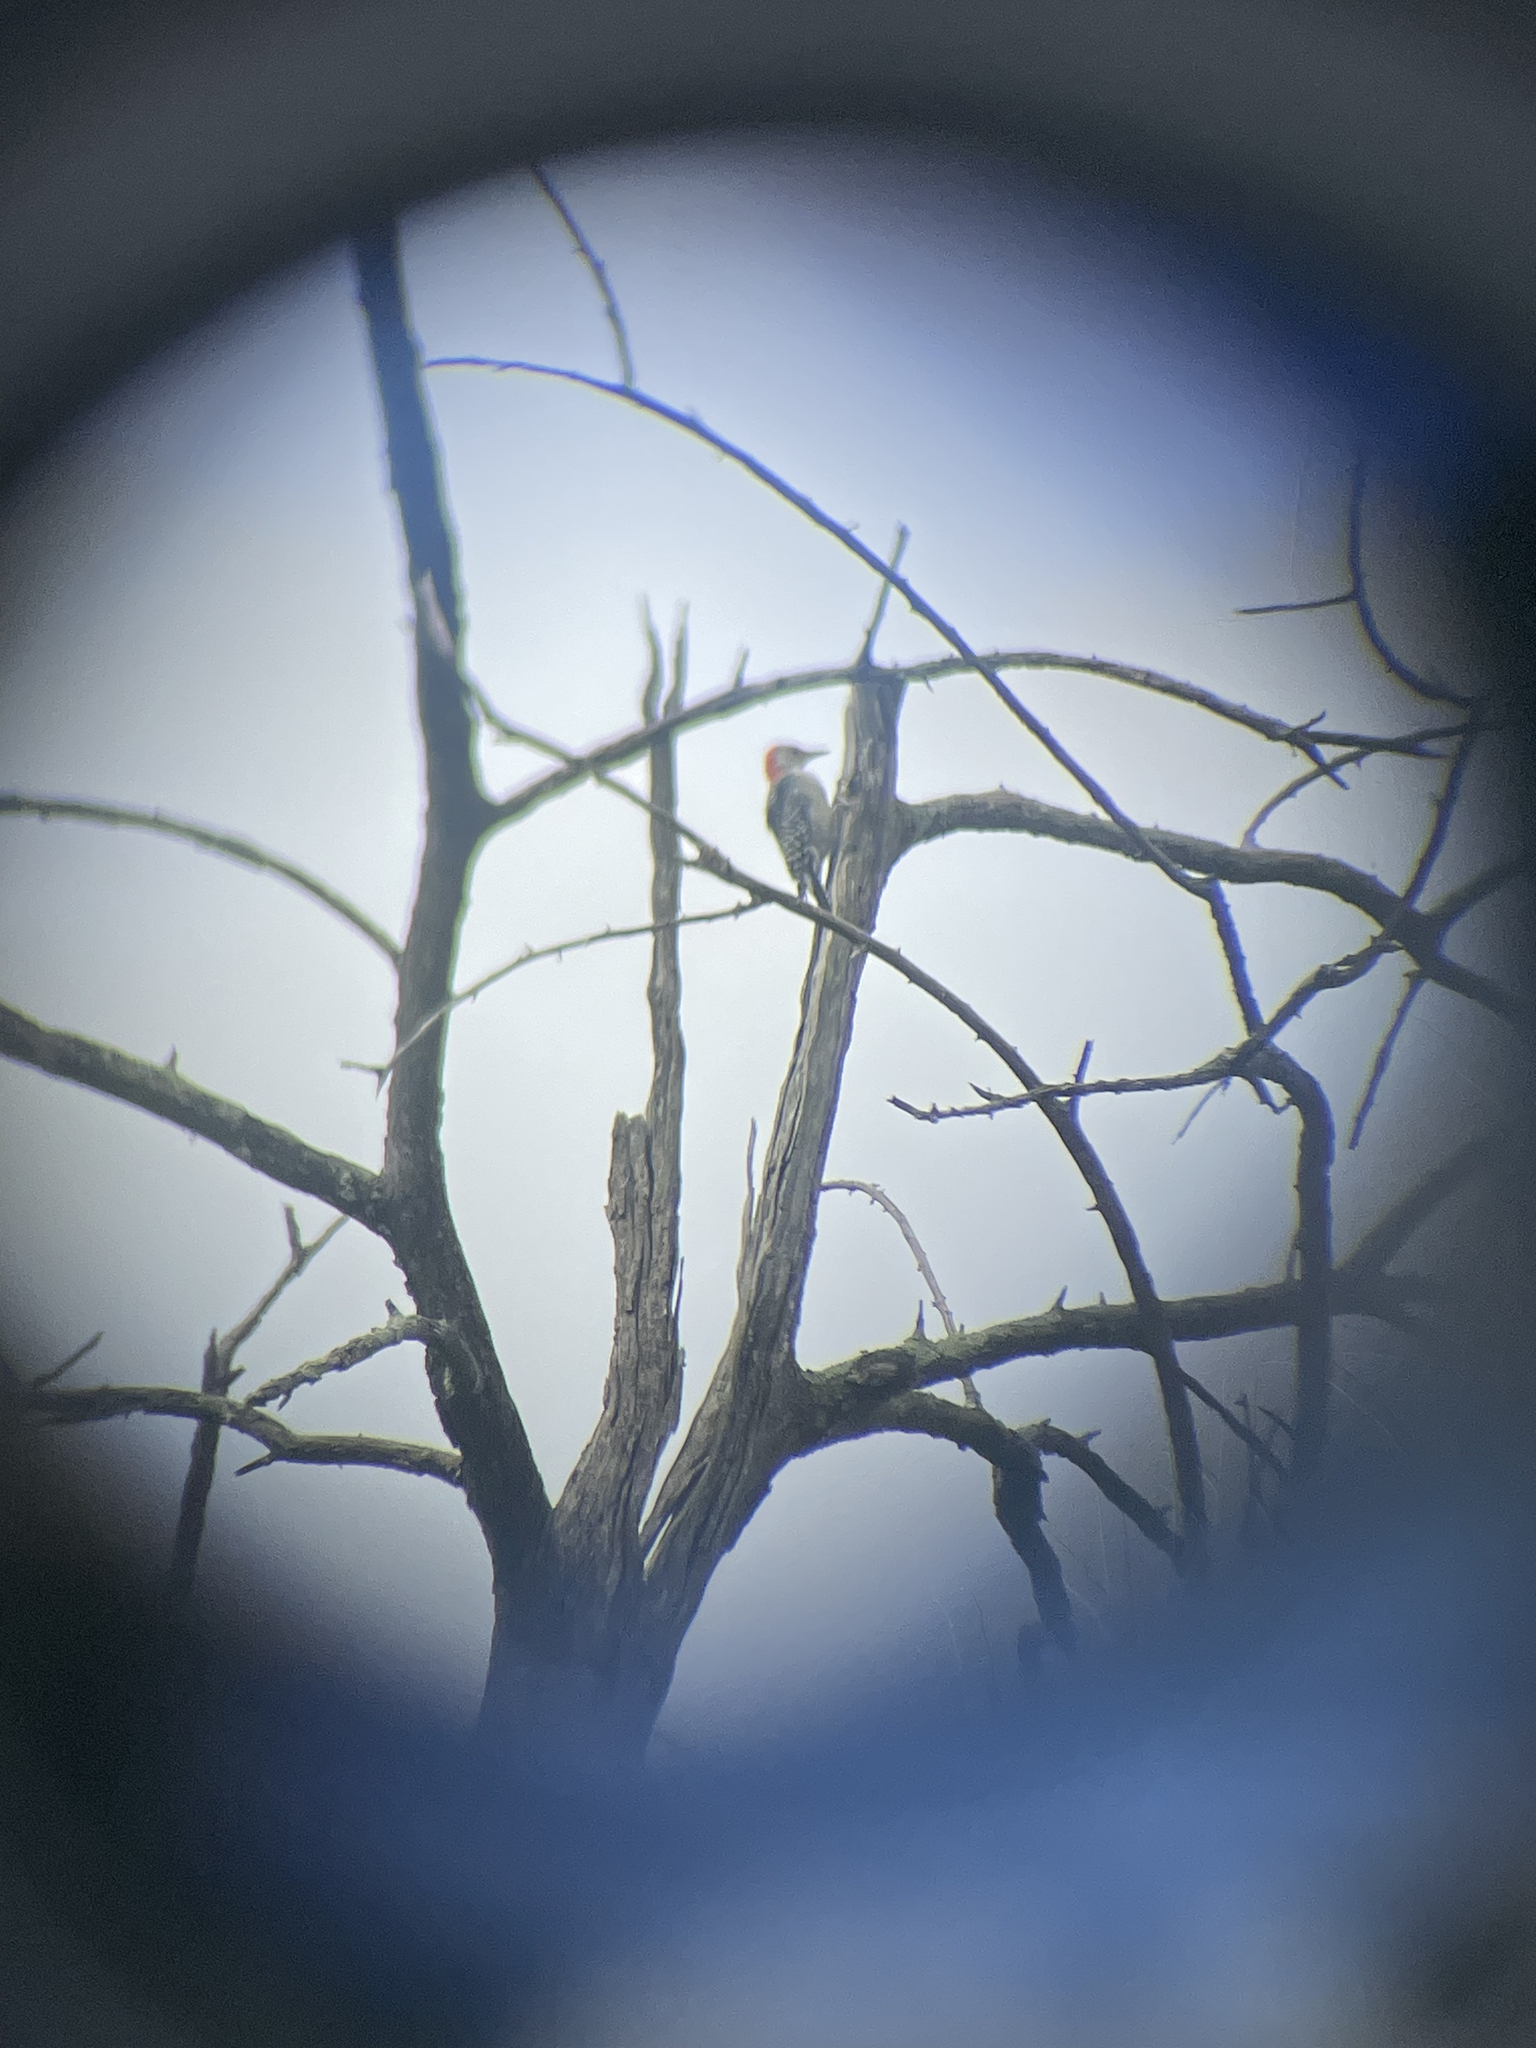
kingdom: Animalia
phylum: Chordata
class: Aves
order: Piciformes
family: Picidae
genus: Melanerpes
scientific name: Melanerpes carolinus
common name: Red-bellied woodpecker
